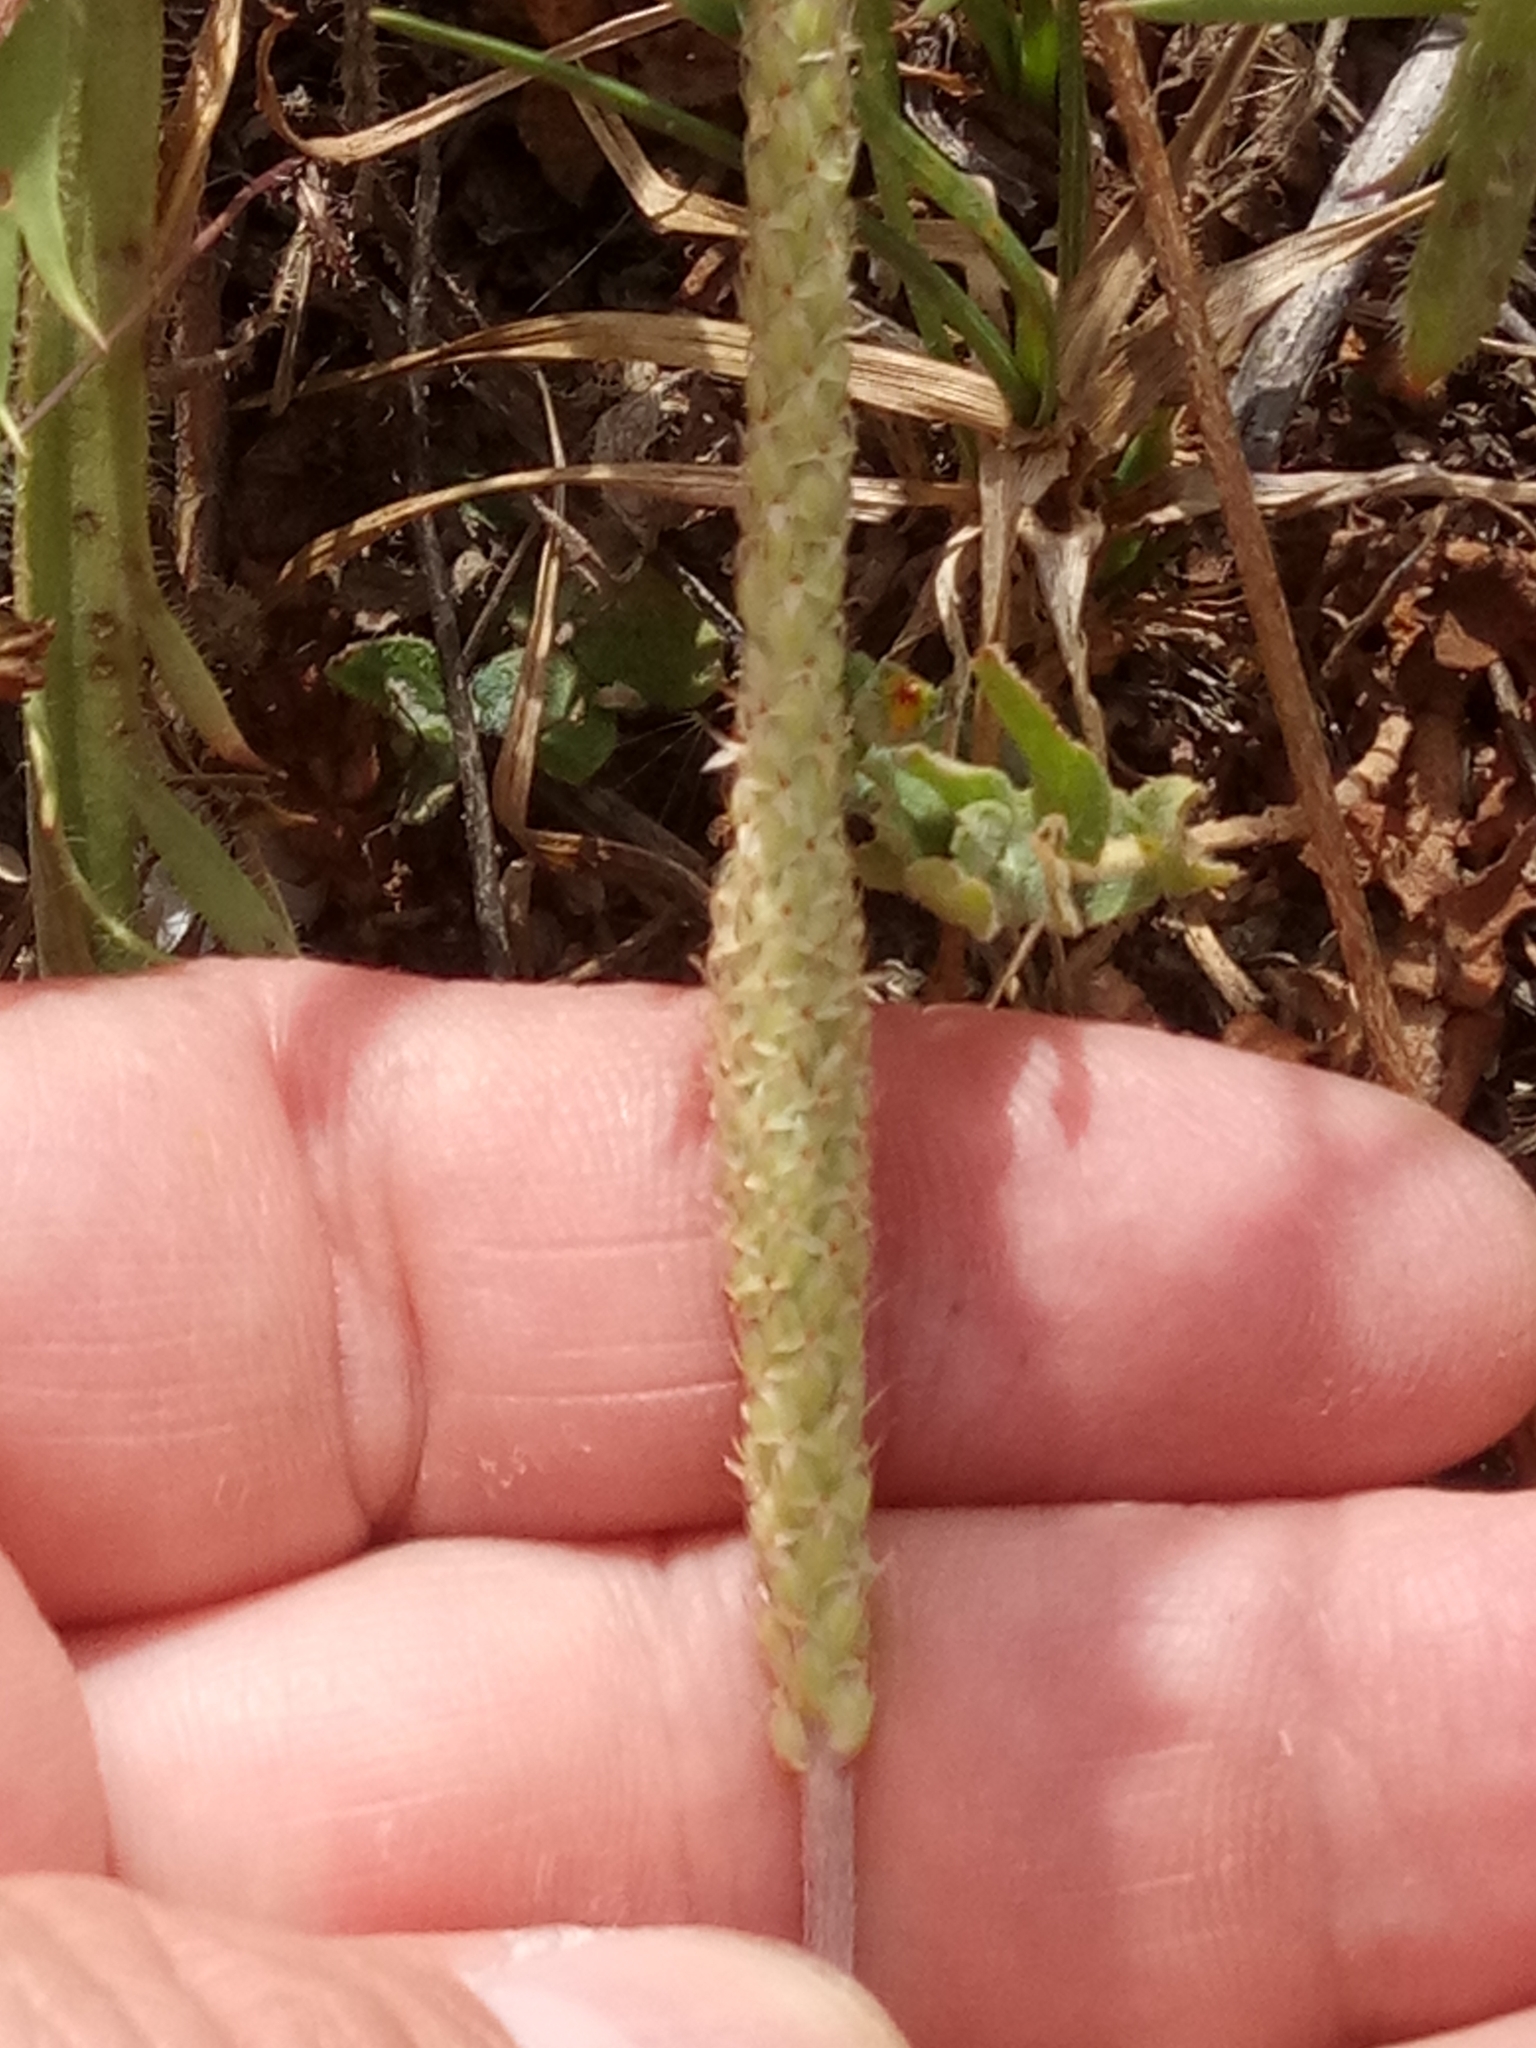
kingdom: Plantae
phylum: Tracheophyta
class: Magnoliopsida
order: Lamiales
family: Plantaginaceae
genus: Plantago
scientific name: Plantago coronopus
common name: Buck's-horn plantain
